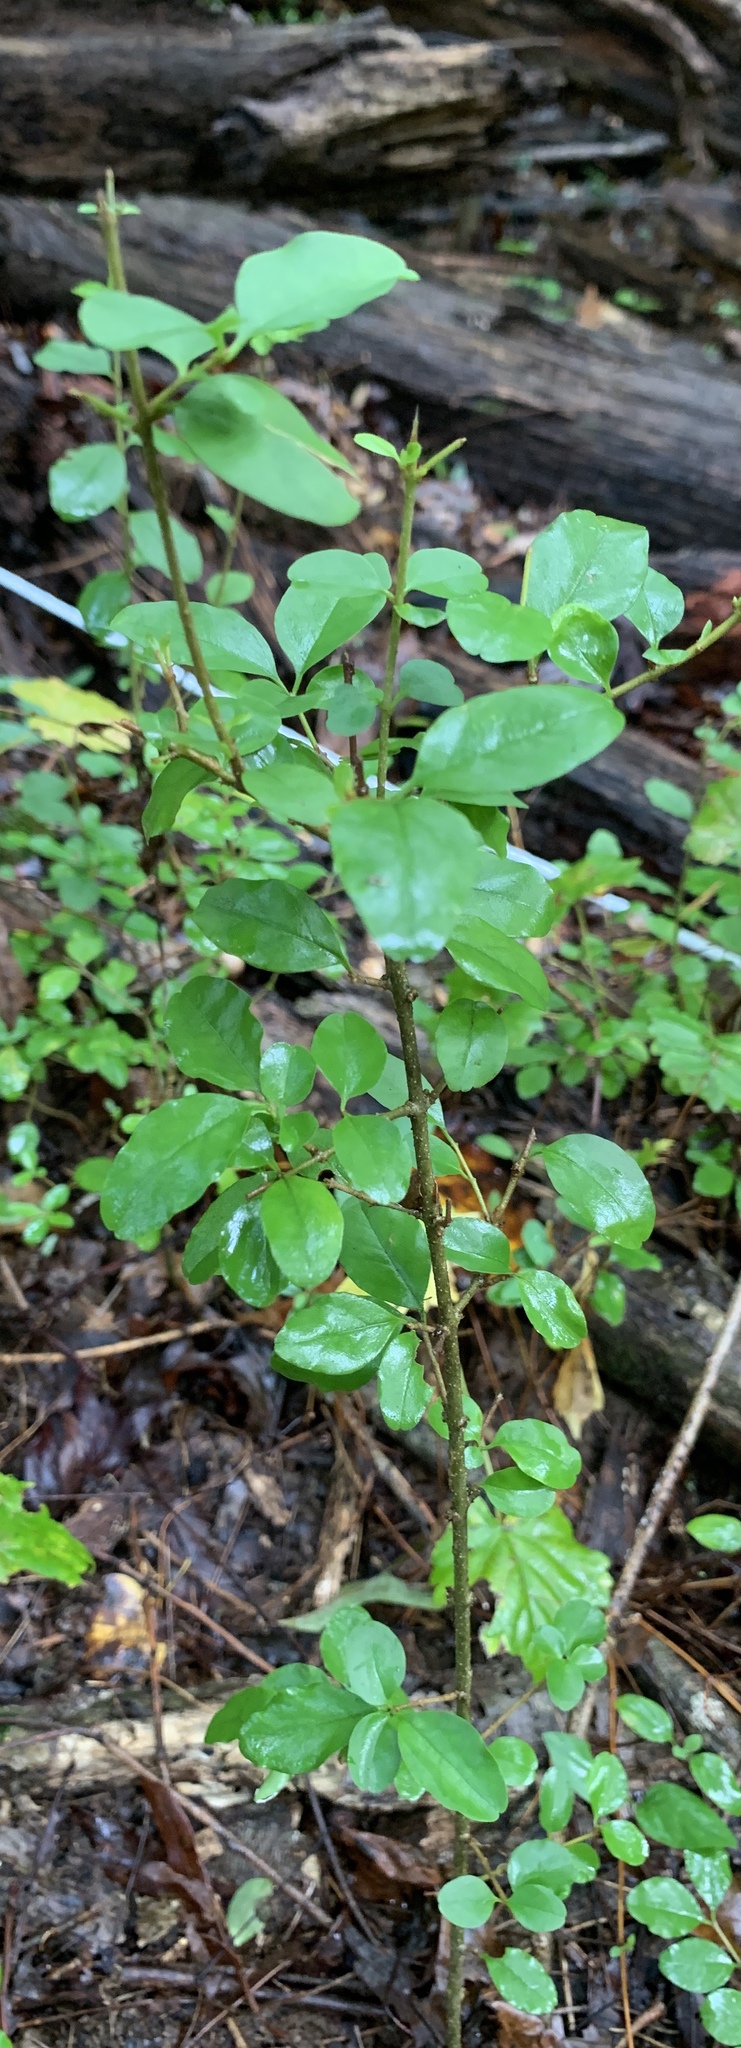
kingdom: Plantae
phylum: Tracheophyta
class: Magnoliopsida
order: Lamiales
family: Oleaceae
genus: Ligustrum
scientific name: Ligustrum sinense
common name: Chinese privet
